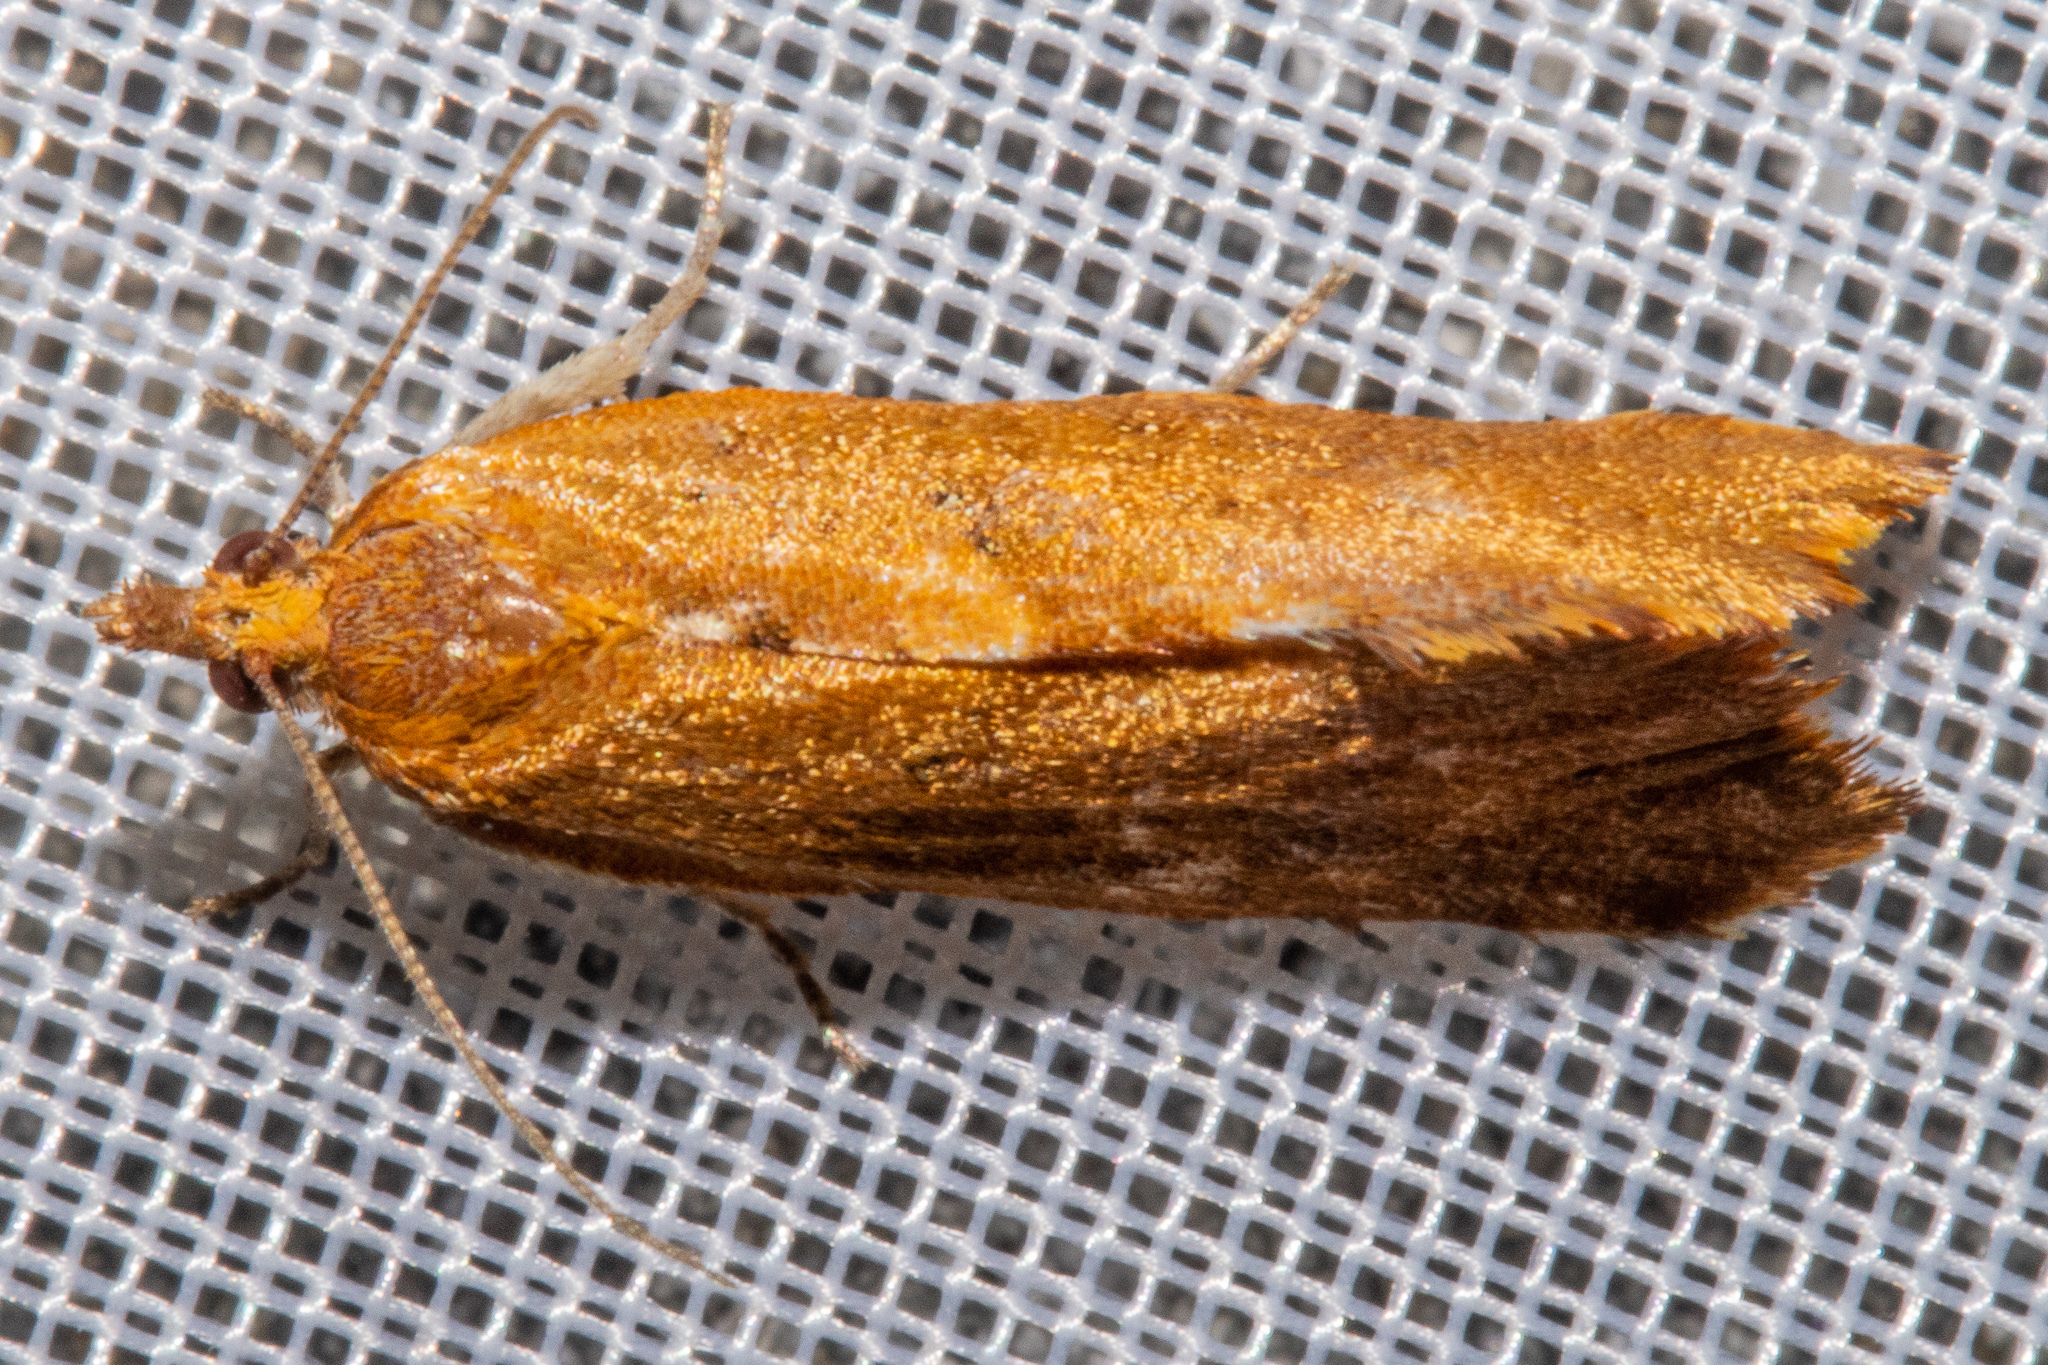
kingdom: Animalia
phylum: Arthropoda
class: Insecta
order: Lepidoptera
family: Tortricidae
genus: Pyrgotis
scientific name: Pyrgotis pyramidias
